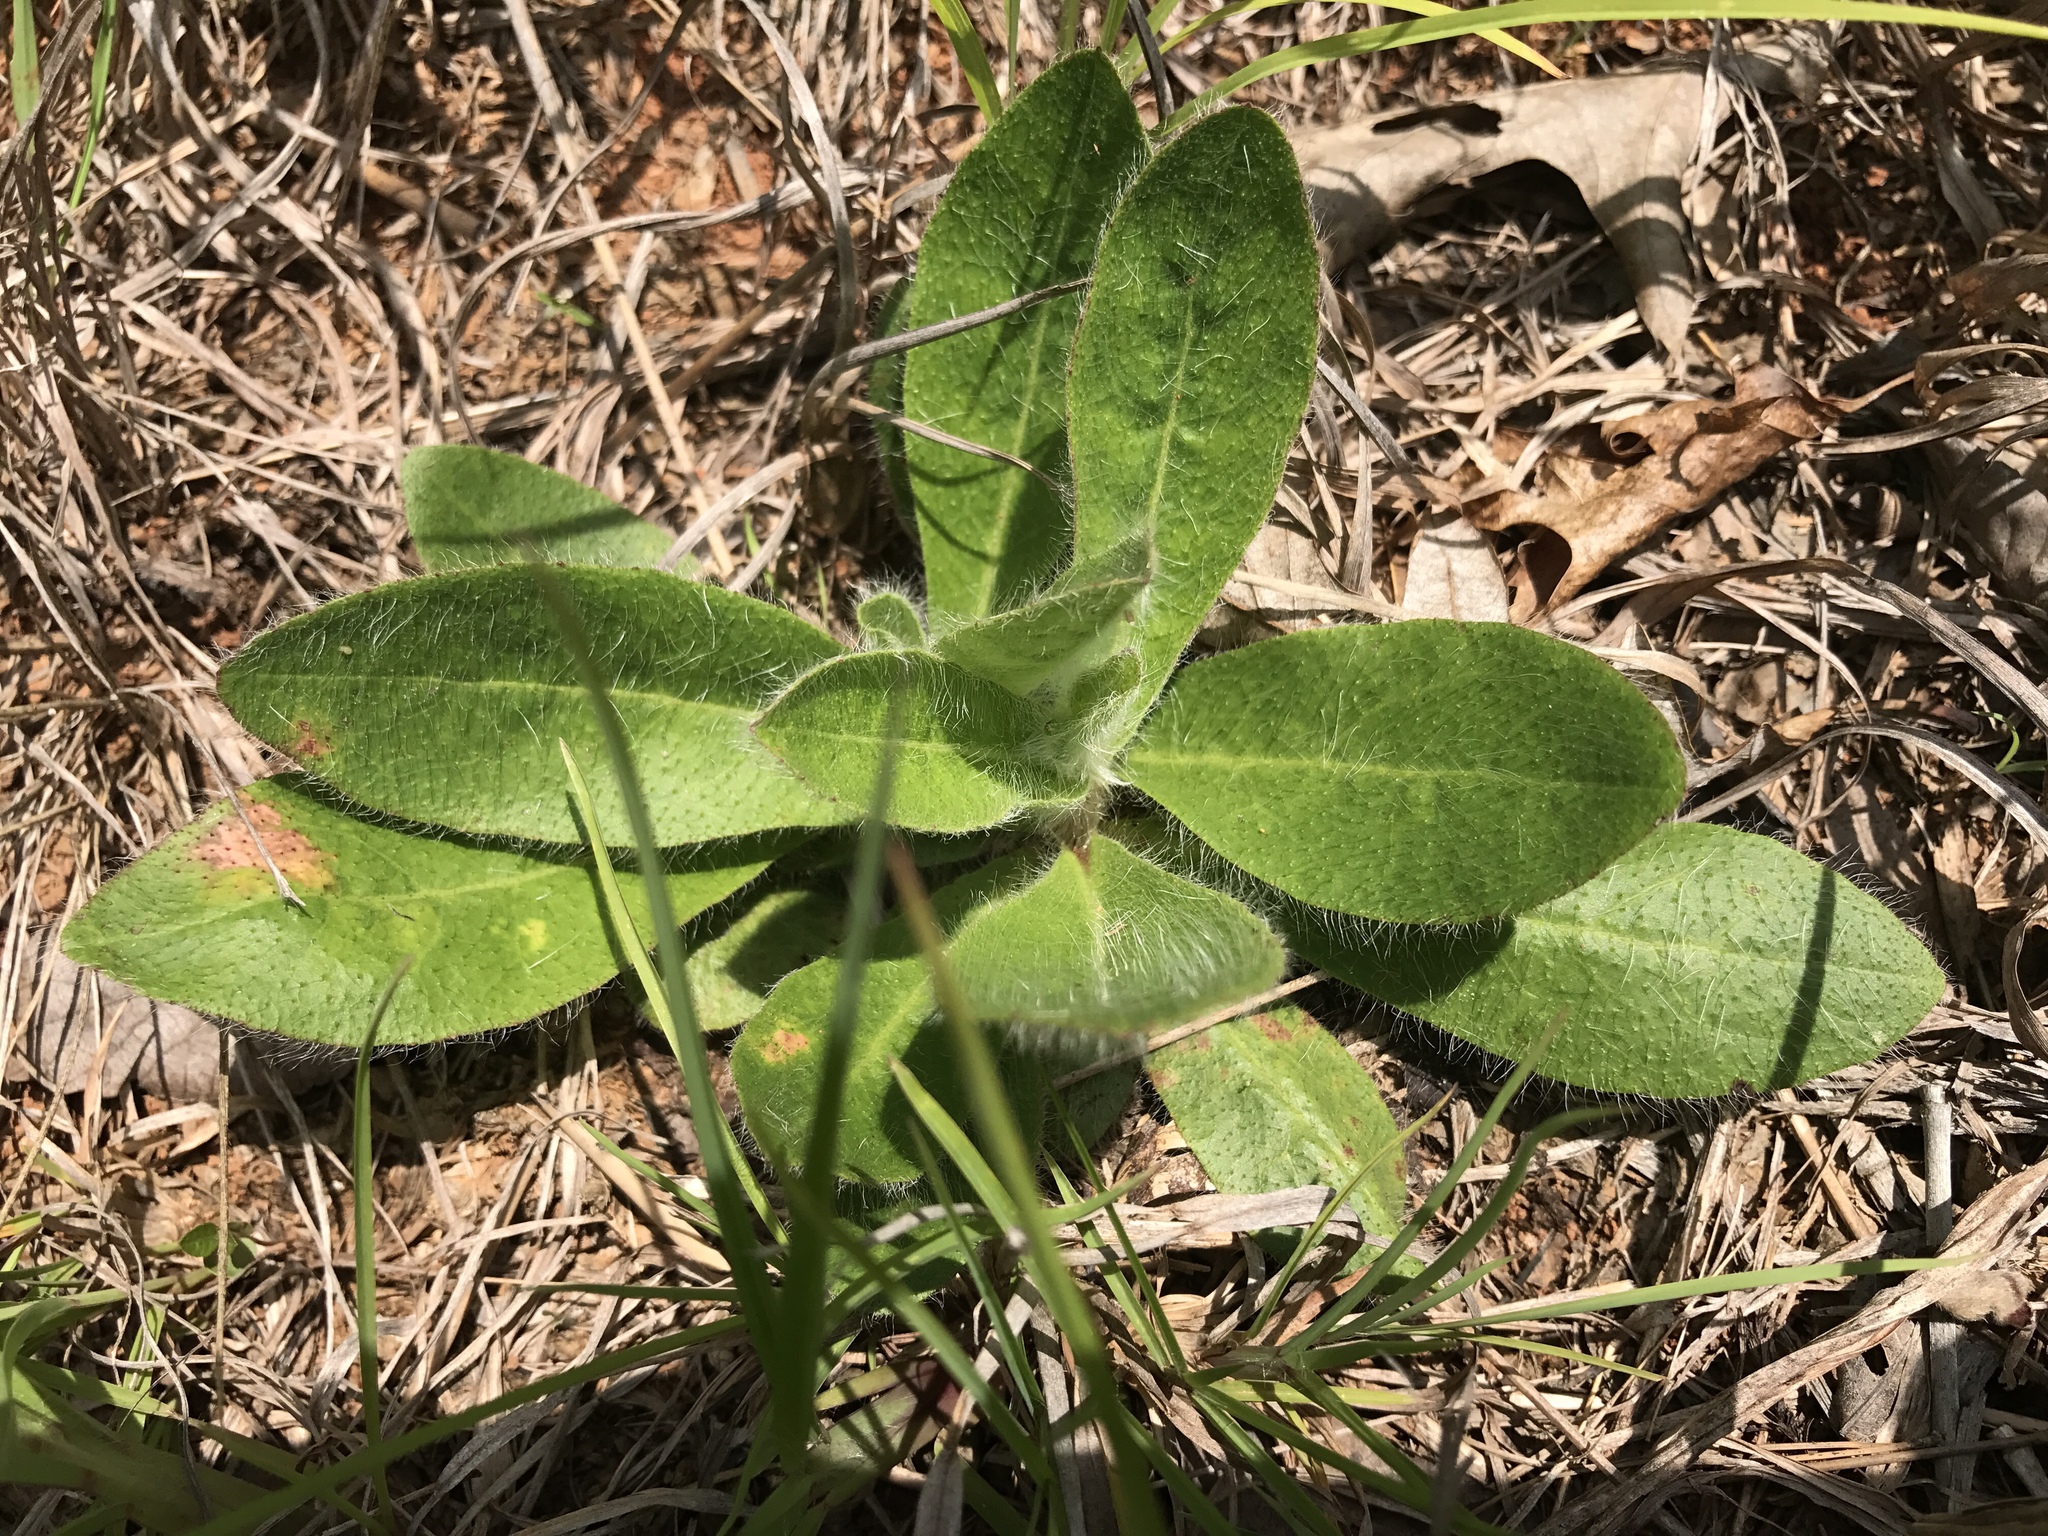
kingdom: Plantae
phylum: Tracheophyta
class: Magnoliopsida
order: Asterales
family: Asteraceae
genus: Hieracium
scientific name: Hieracium gronovii
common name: Beaked hawkweed
